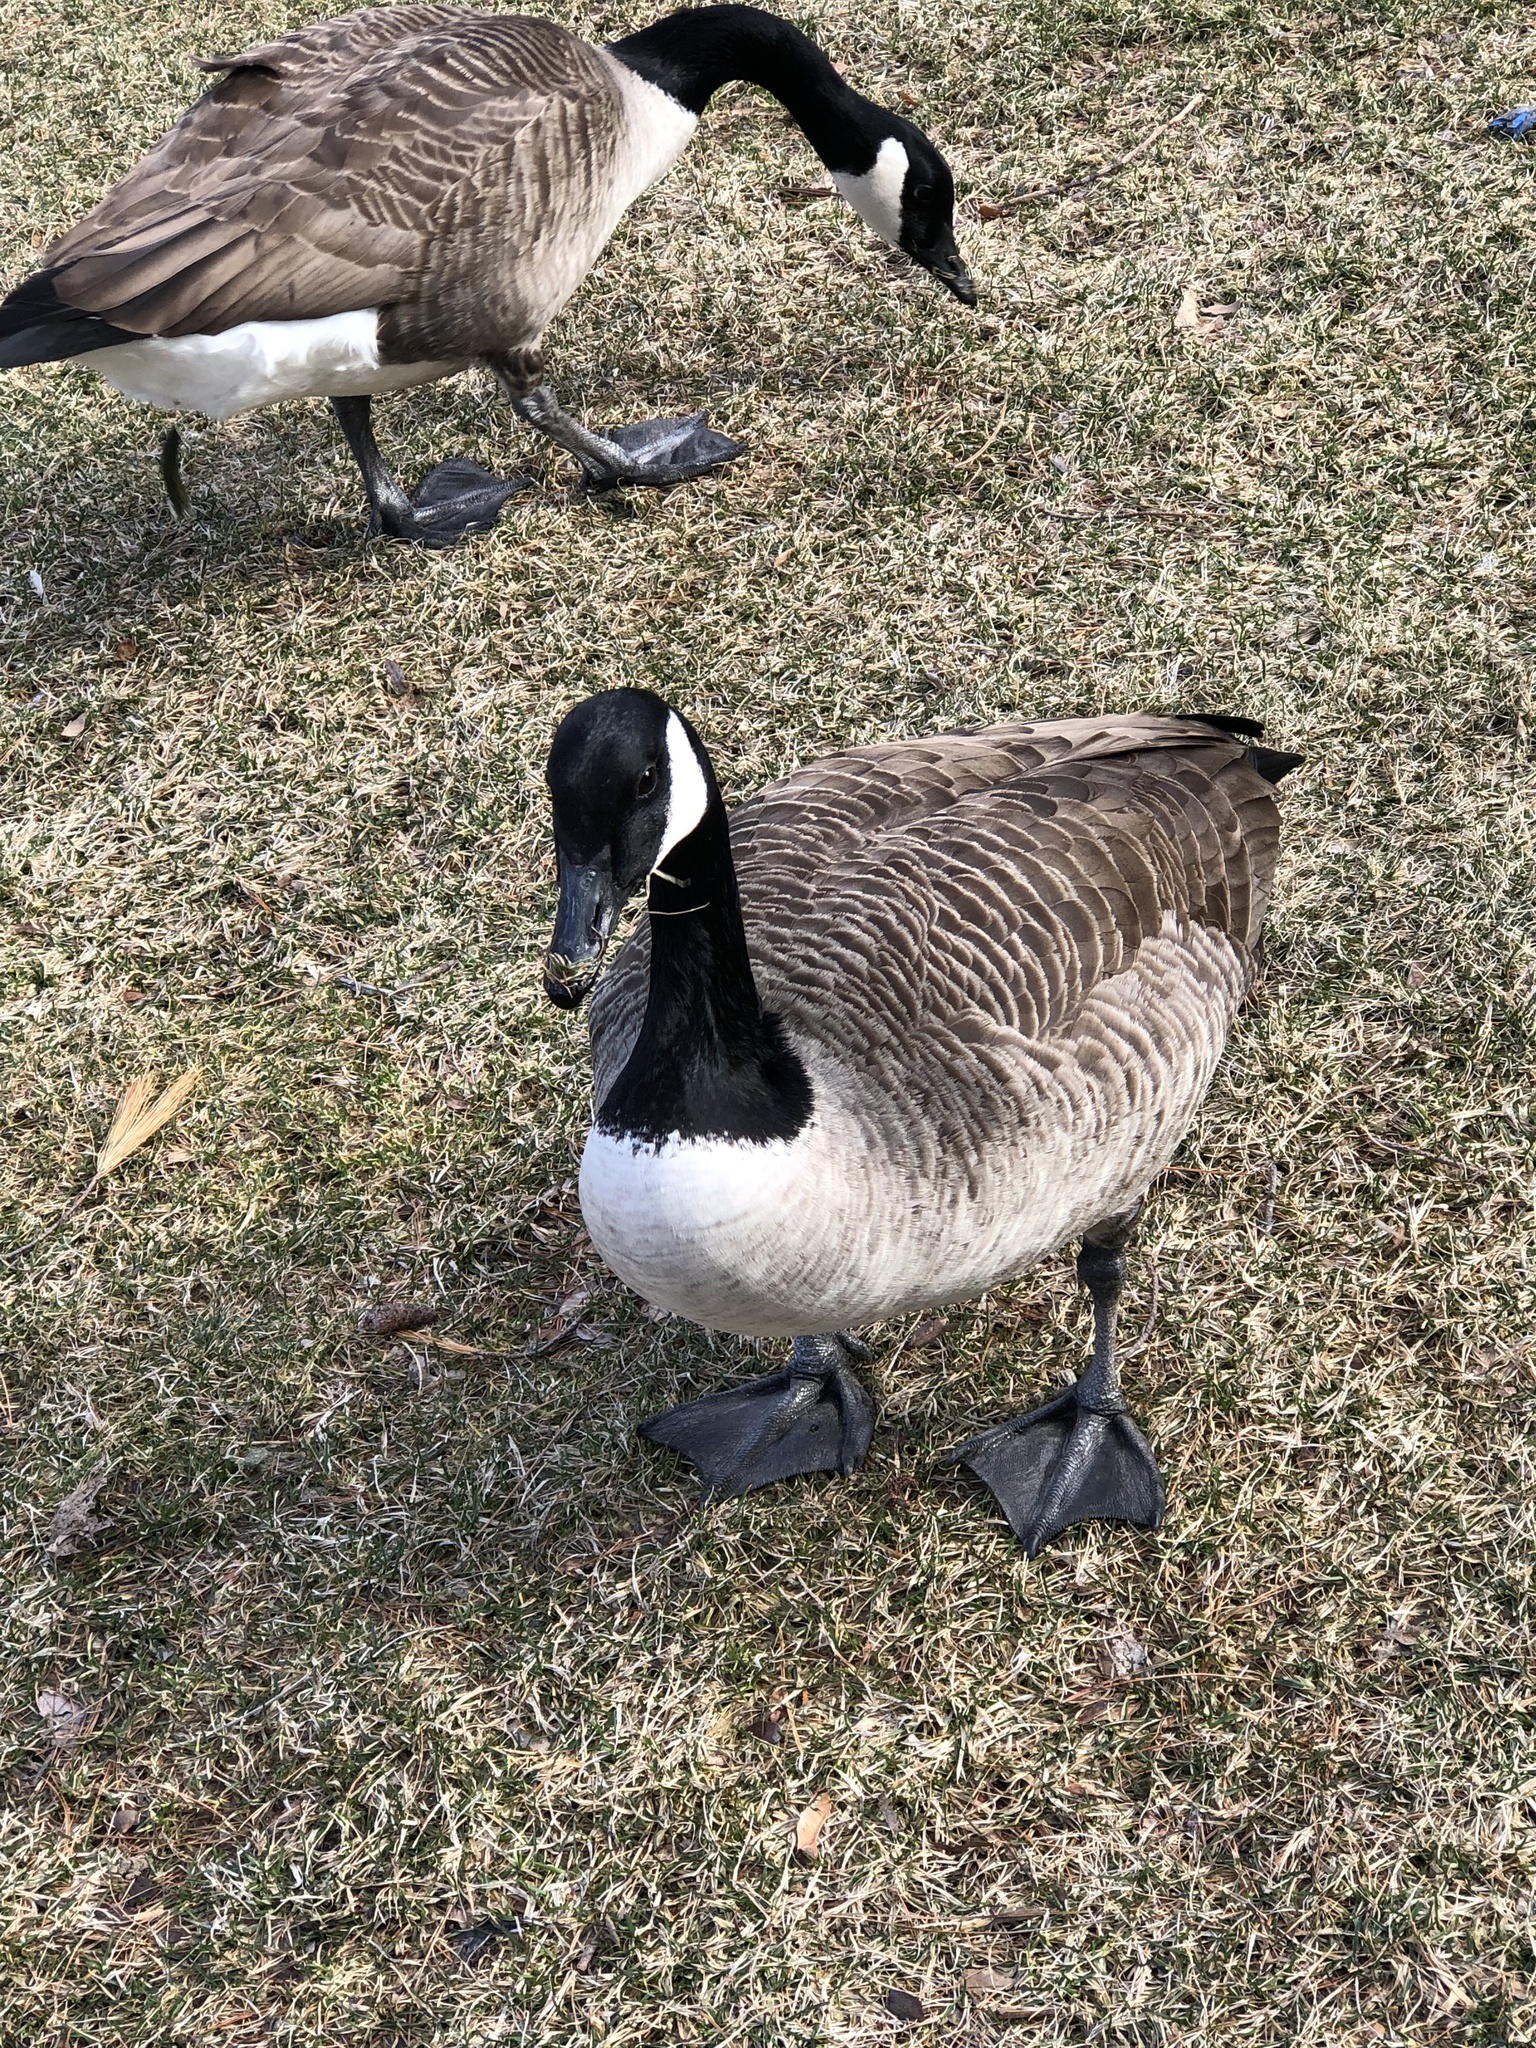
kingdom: Animalia
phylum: Chordata
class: Aves
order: Anseriformes
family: Anatidae
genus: Branta
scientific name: Branta canadensis
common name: Canada goose
